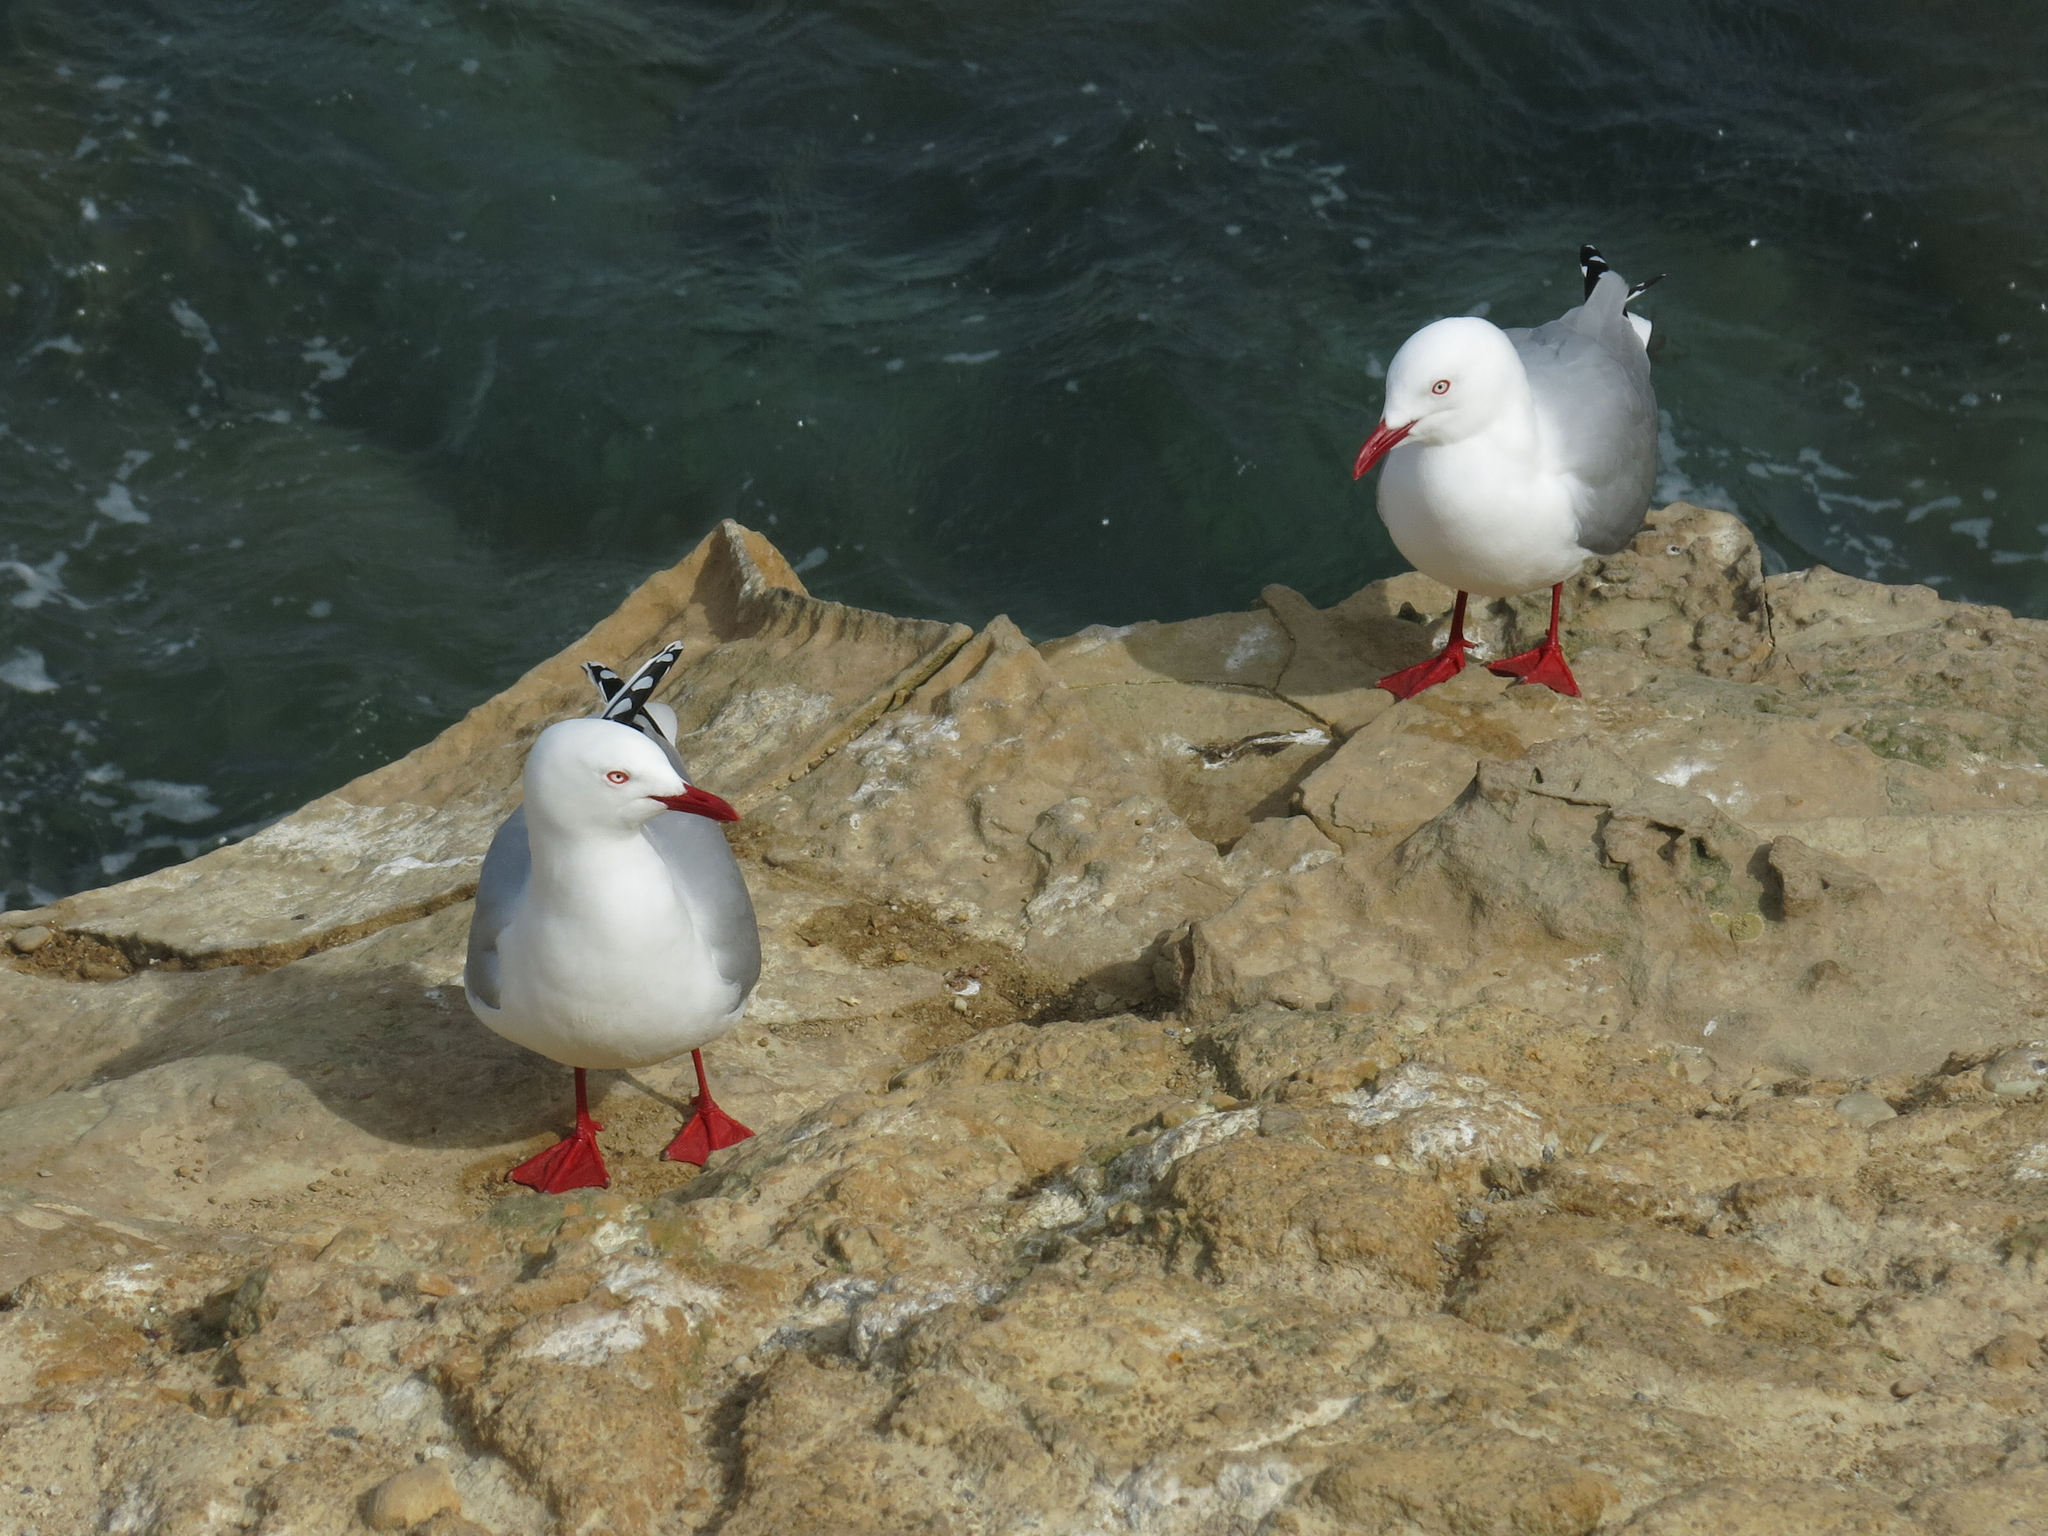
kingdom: Animalia
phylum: Chordata
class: Aves
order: Charadriiformes
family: Laridae
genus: Chroicocephalus
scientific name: Chroicocephalus novaehollandiae
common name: Silver gull
